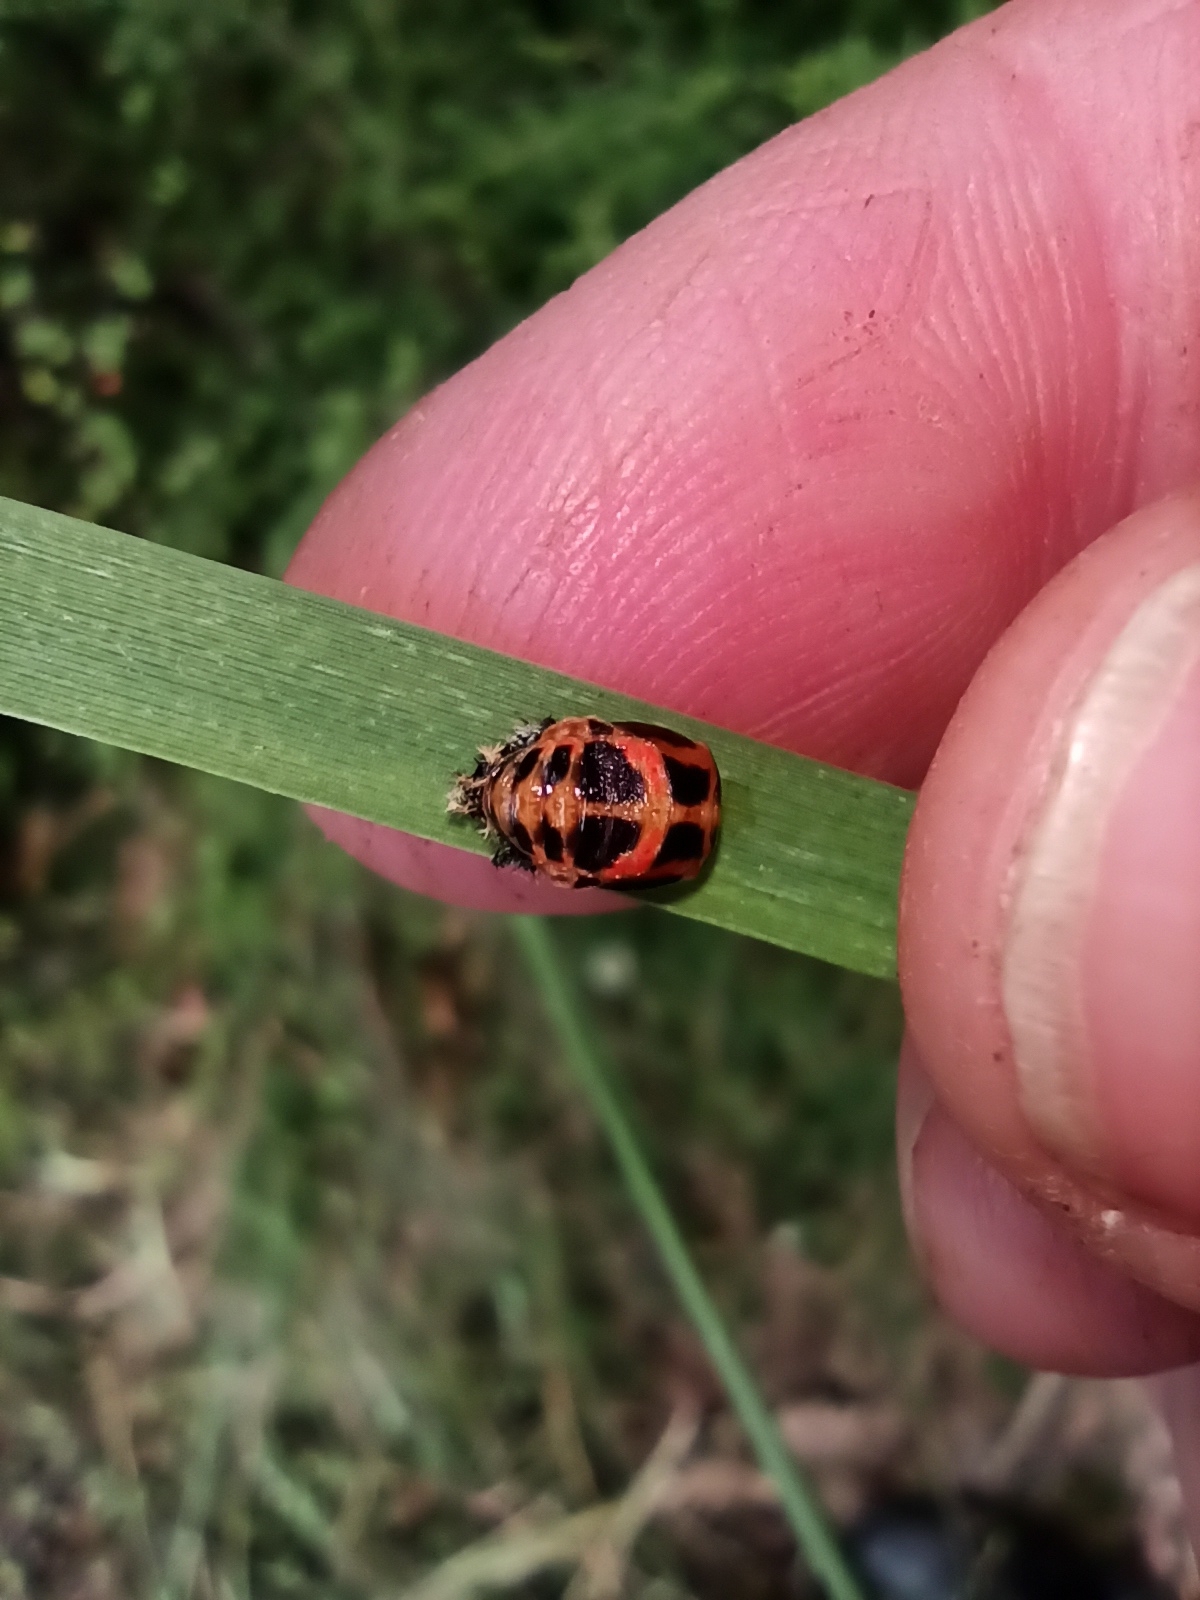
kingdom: Animalia
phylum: Arthropoda
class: Insecta
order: Coleoptera
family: Coccinellidae
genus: Harmonia
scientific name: Harmonia axyridis
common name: Harlequin ladybird
